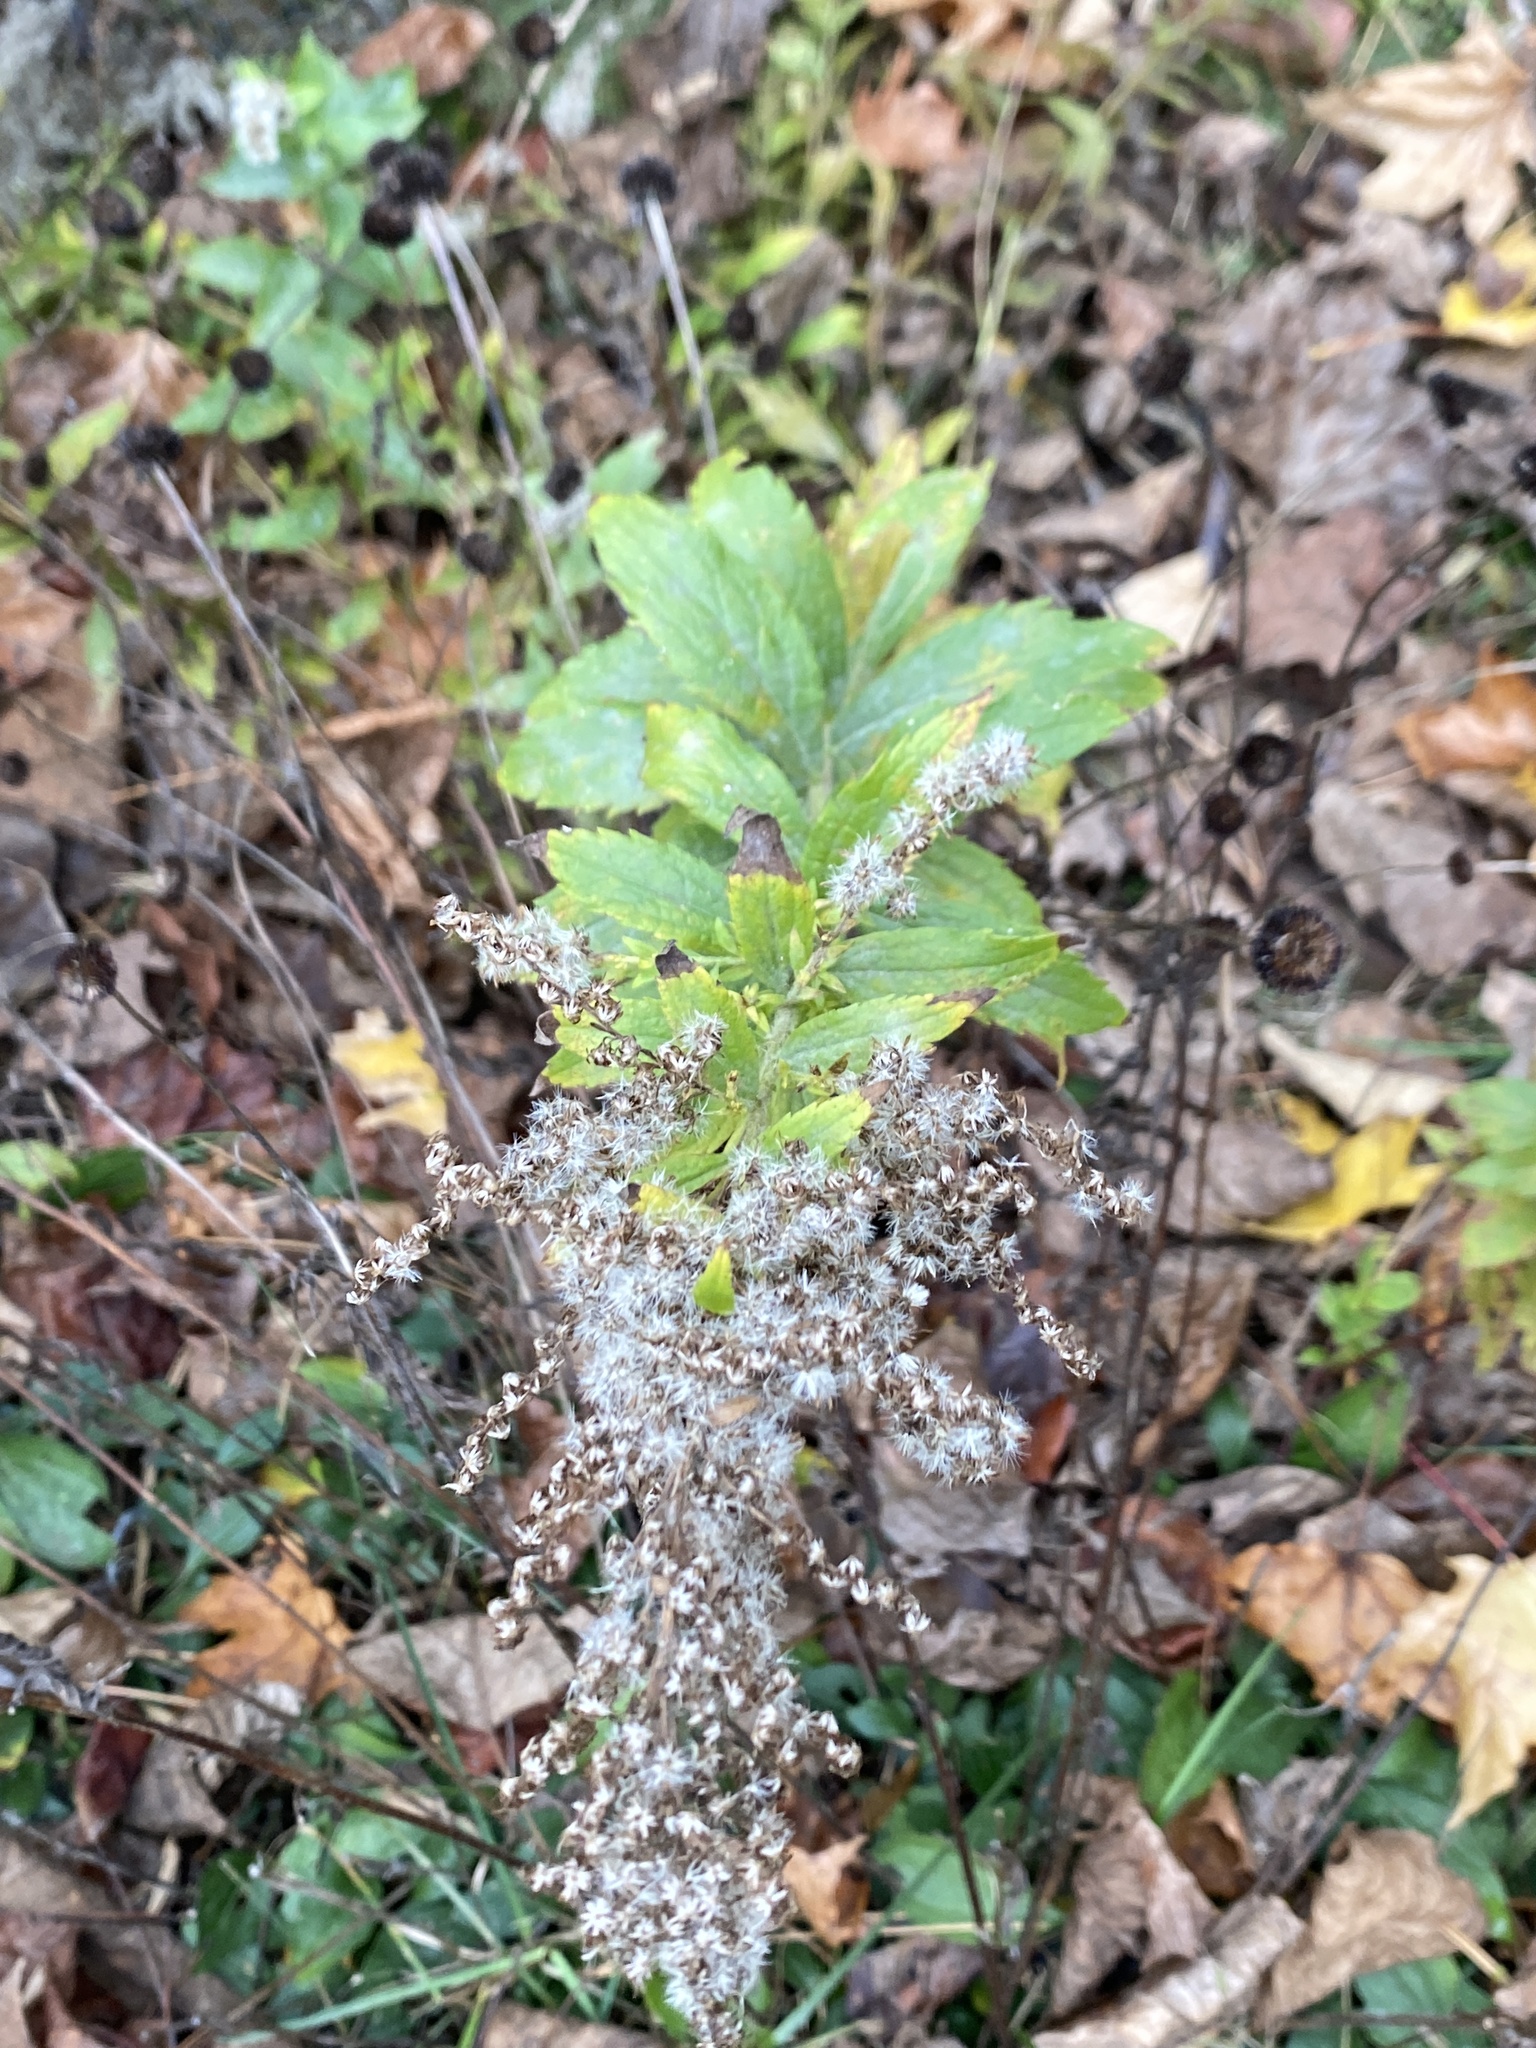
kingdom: Plantae
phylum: Tracheophyta
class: Magnoliopsida
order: Asterales
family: Asteraceae
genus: Solidago
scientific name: Solidago rugosa
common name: Rough-stemmed goldenrod
